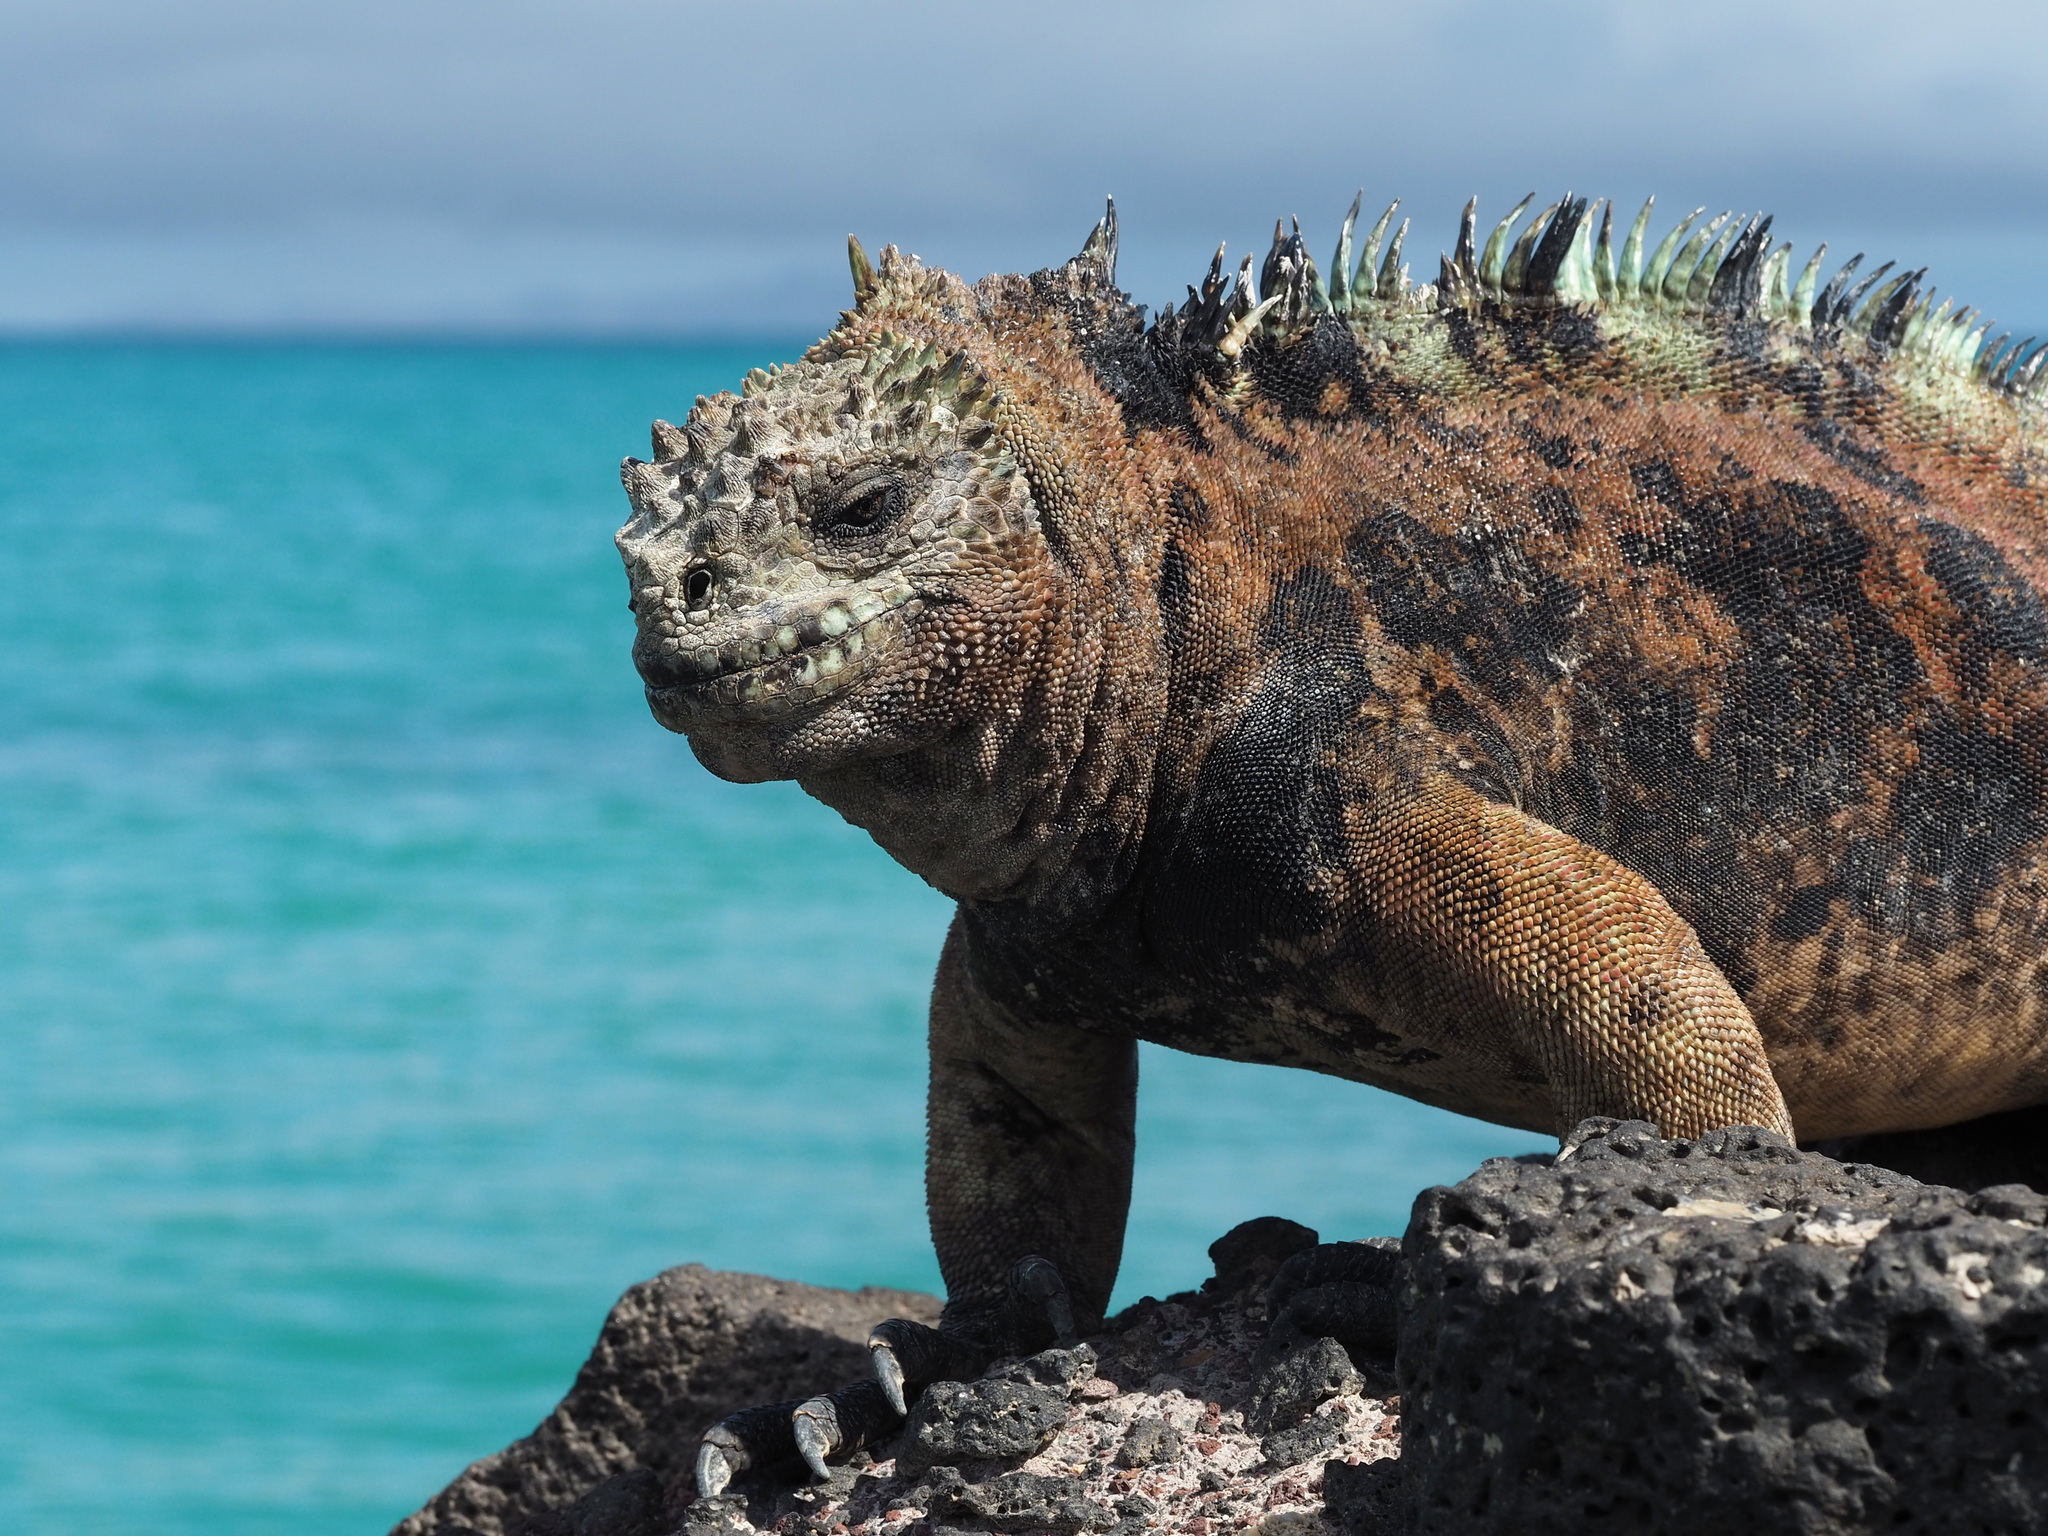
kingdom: Animalia
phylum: Chordata
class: Squamata
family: Iguanidae
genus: Amblyrhynchus
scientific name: Amblyrhynchus cristatus
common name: Marine iguana
